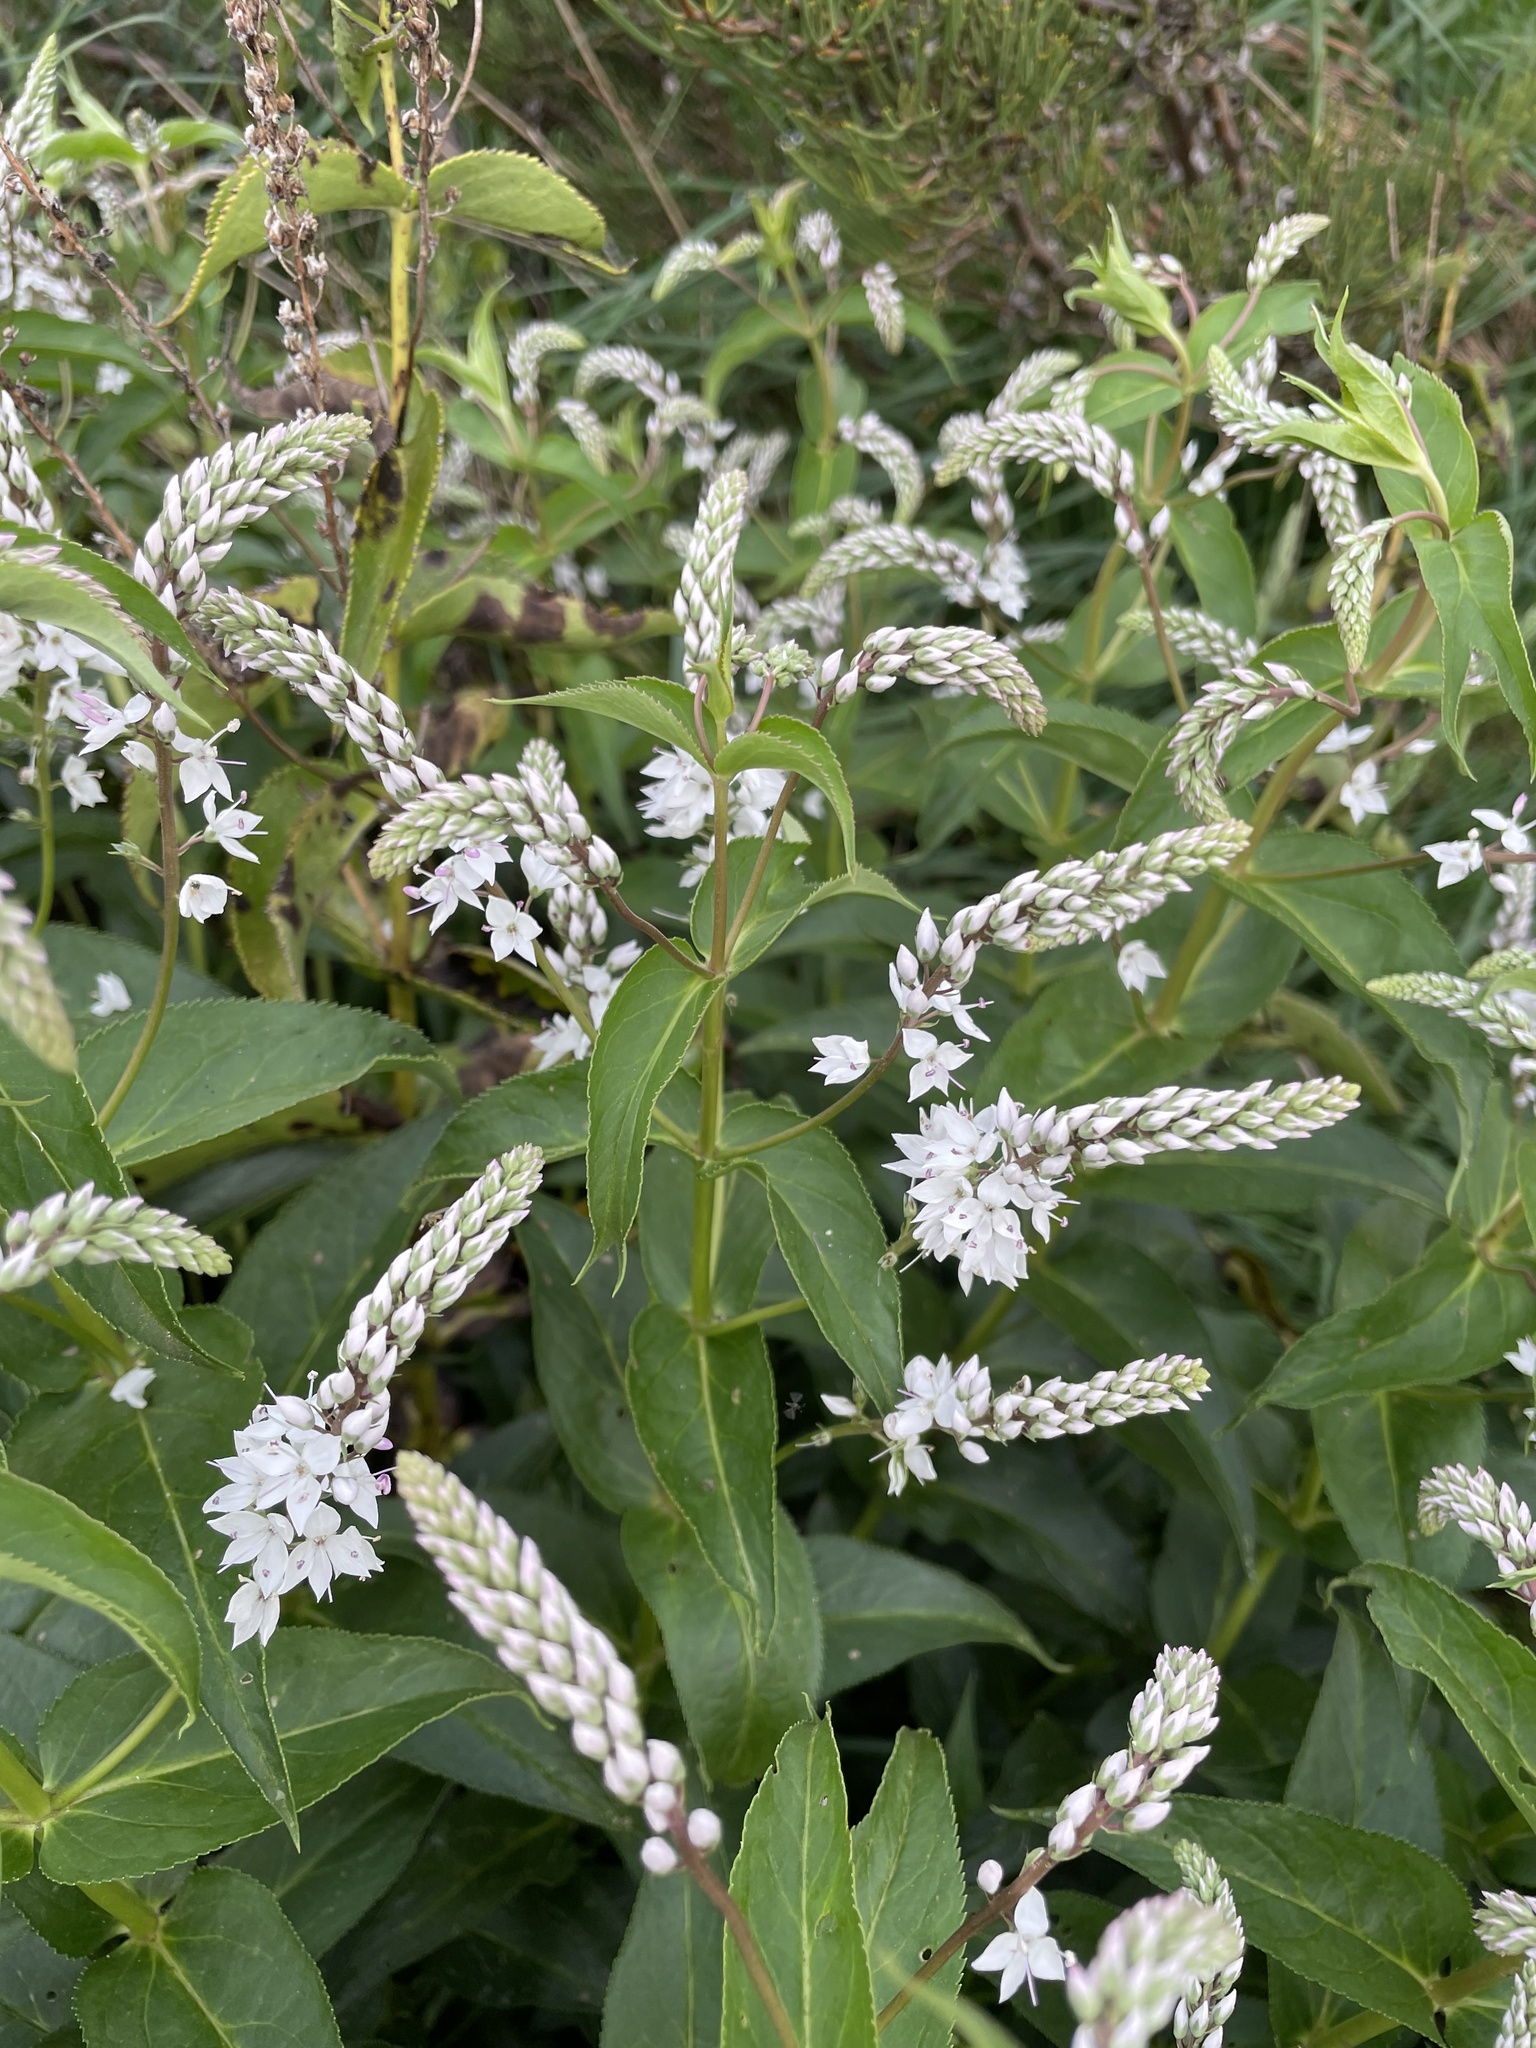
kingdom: Plantae
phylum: Tracheophyta
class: Magnoliopsida
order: Lamiales
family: Plantaginaceae
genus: Veronica
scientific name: Veronica derwentiana
